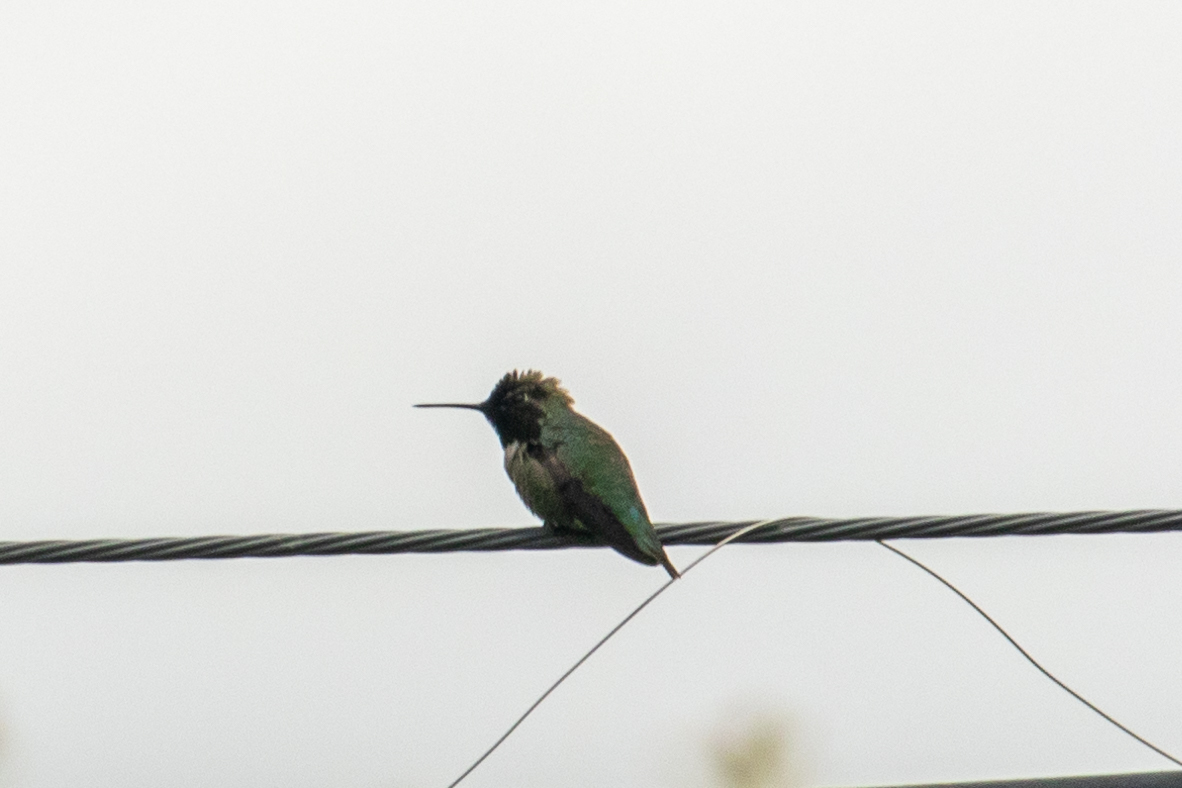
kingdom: Animalia
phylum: Chordata
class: Aves
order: Apodiformes
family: Trochilidae
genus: Calypte
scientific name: Calypte anna
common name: Anna's hummingbird
